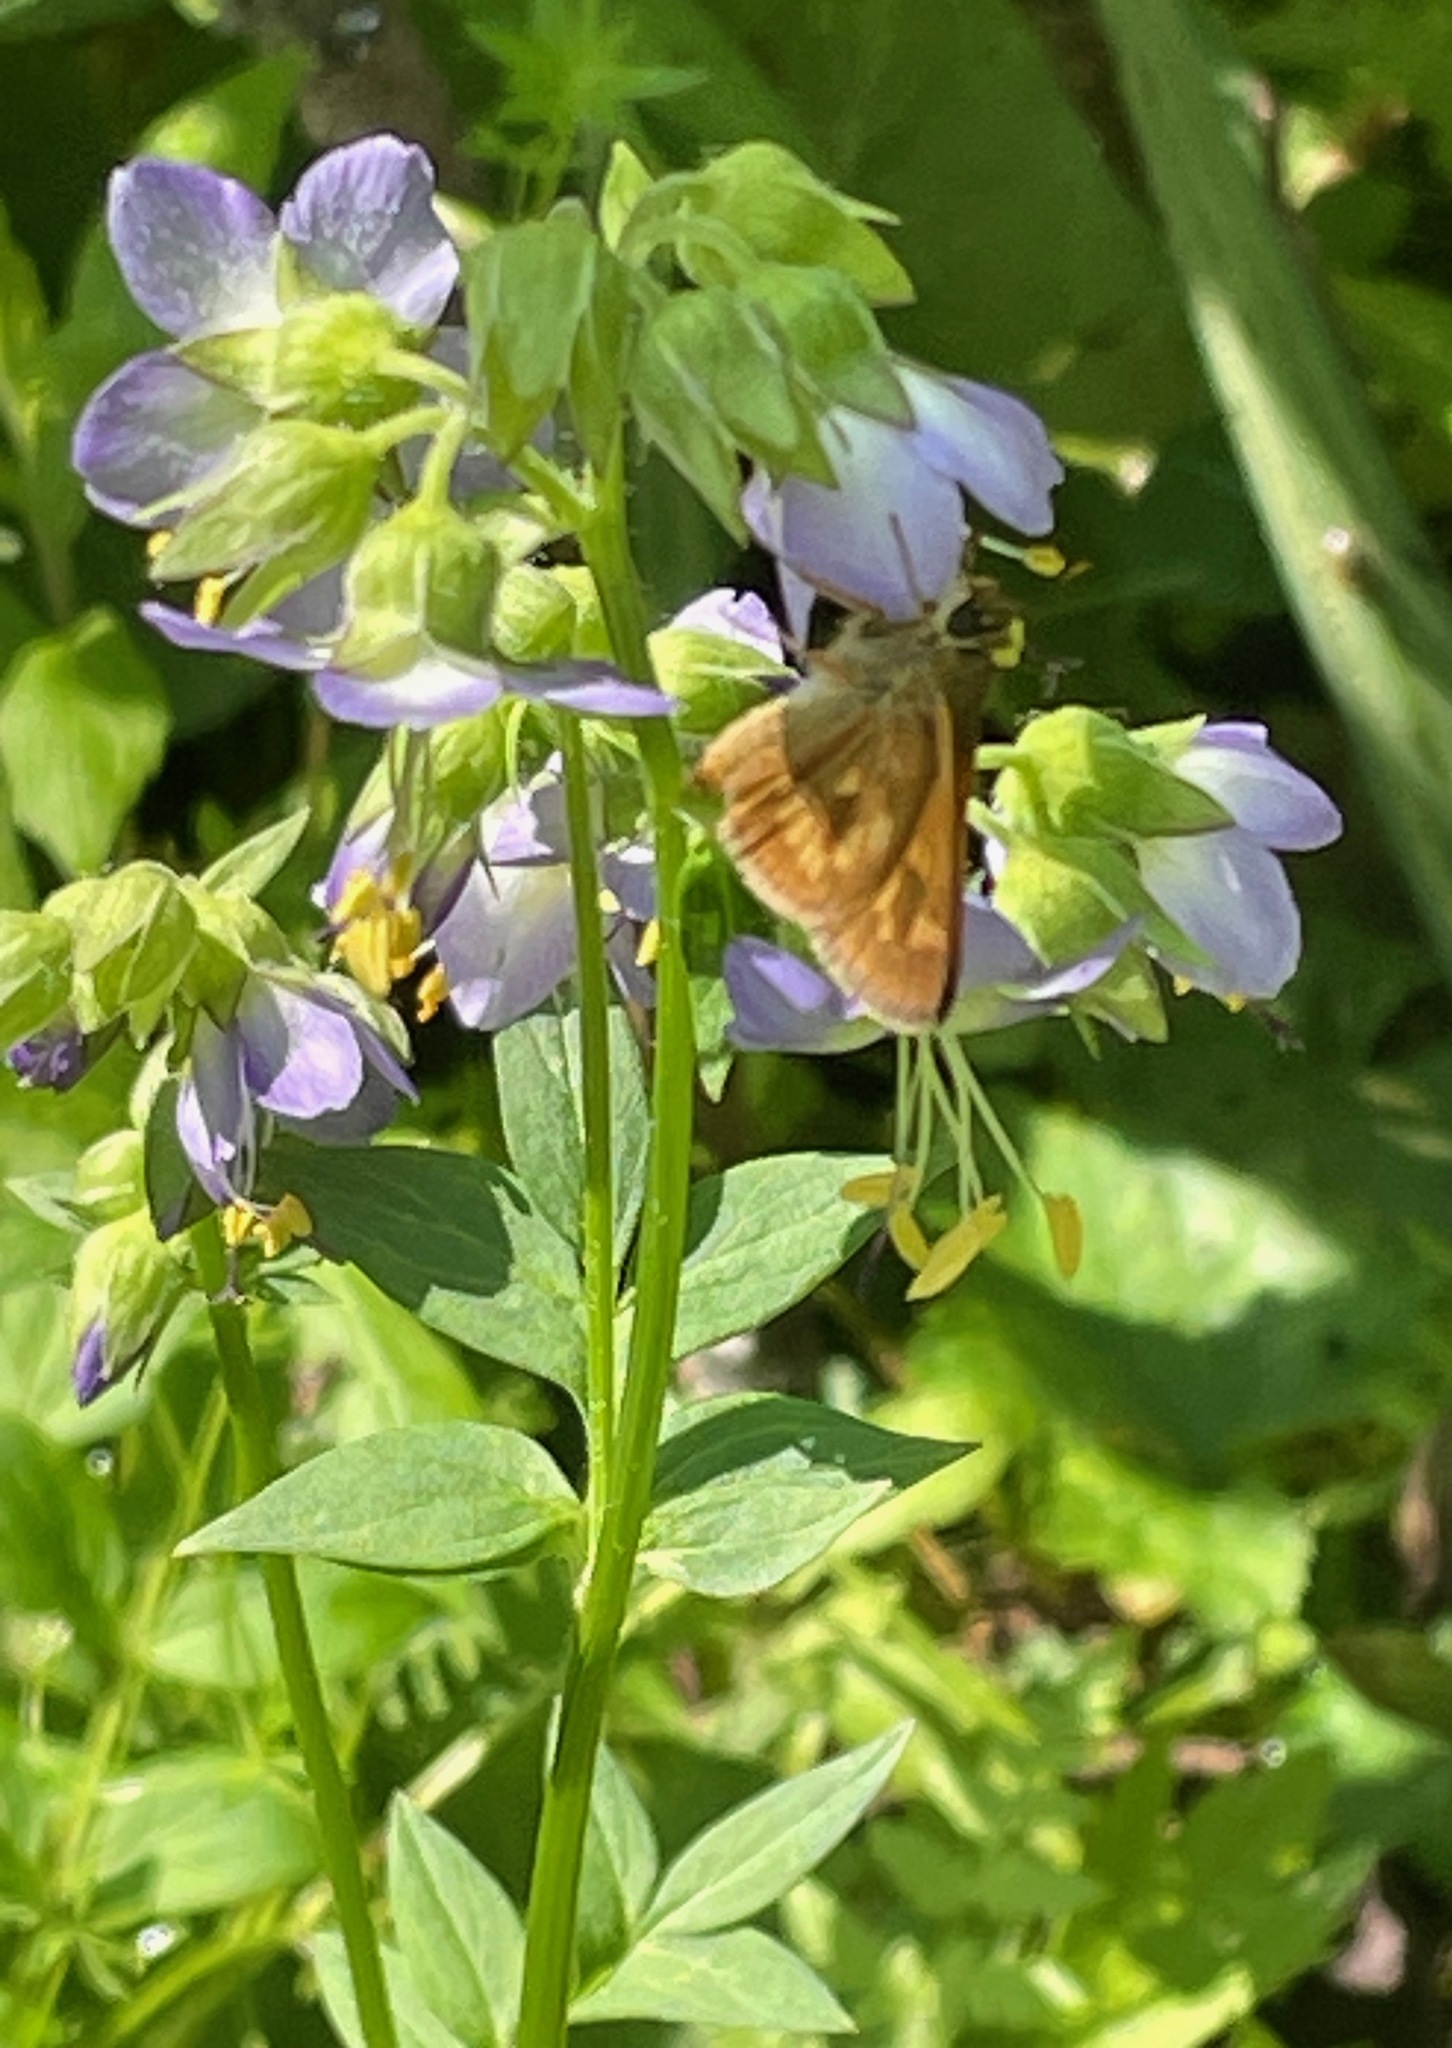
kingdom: Animalia
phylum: Arthropoda
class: Insecta
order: Lepidoptera
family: Hesperiidae
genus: Polites
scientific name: Polites mystic
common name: Long dash
